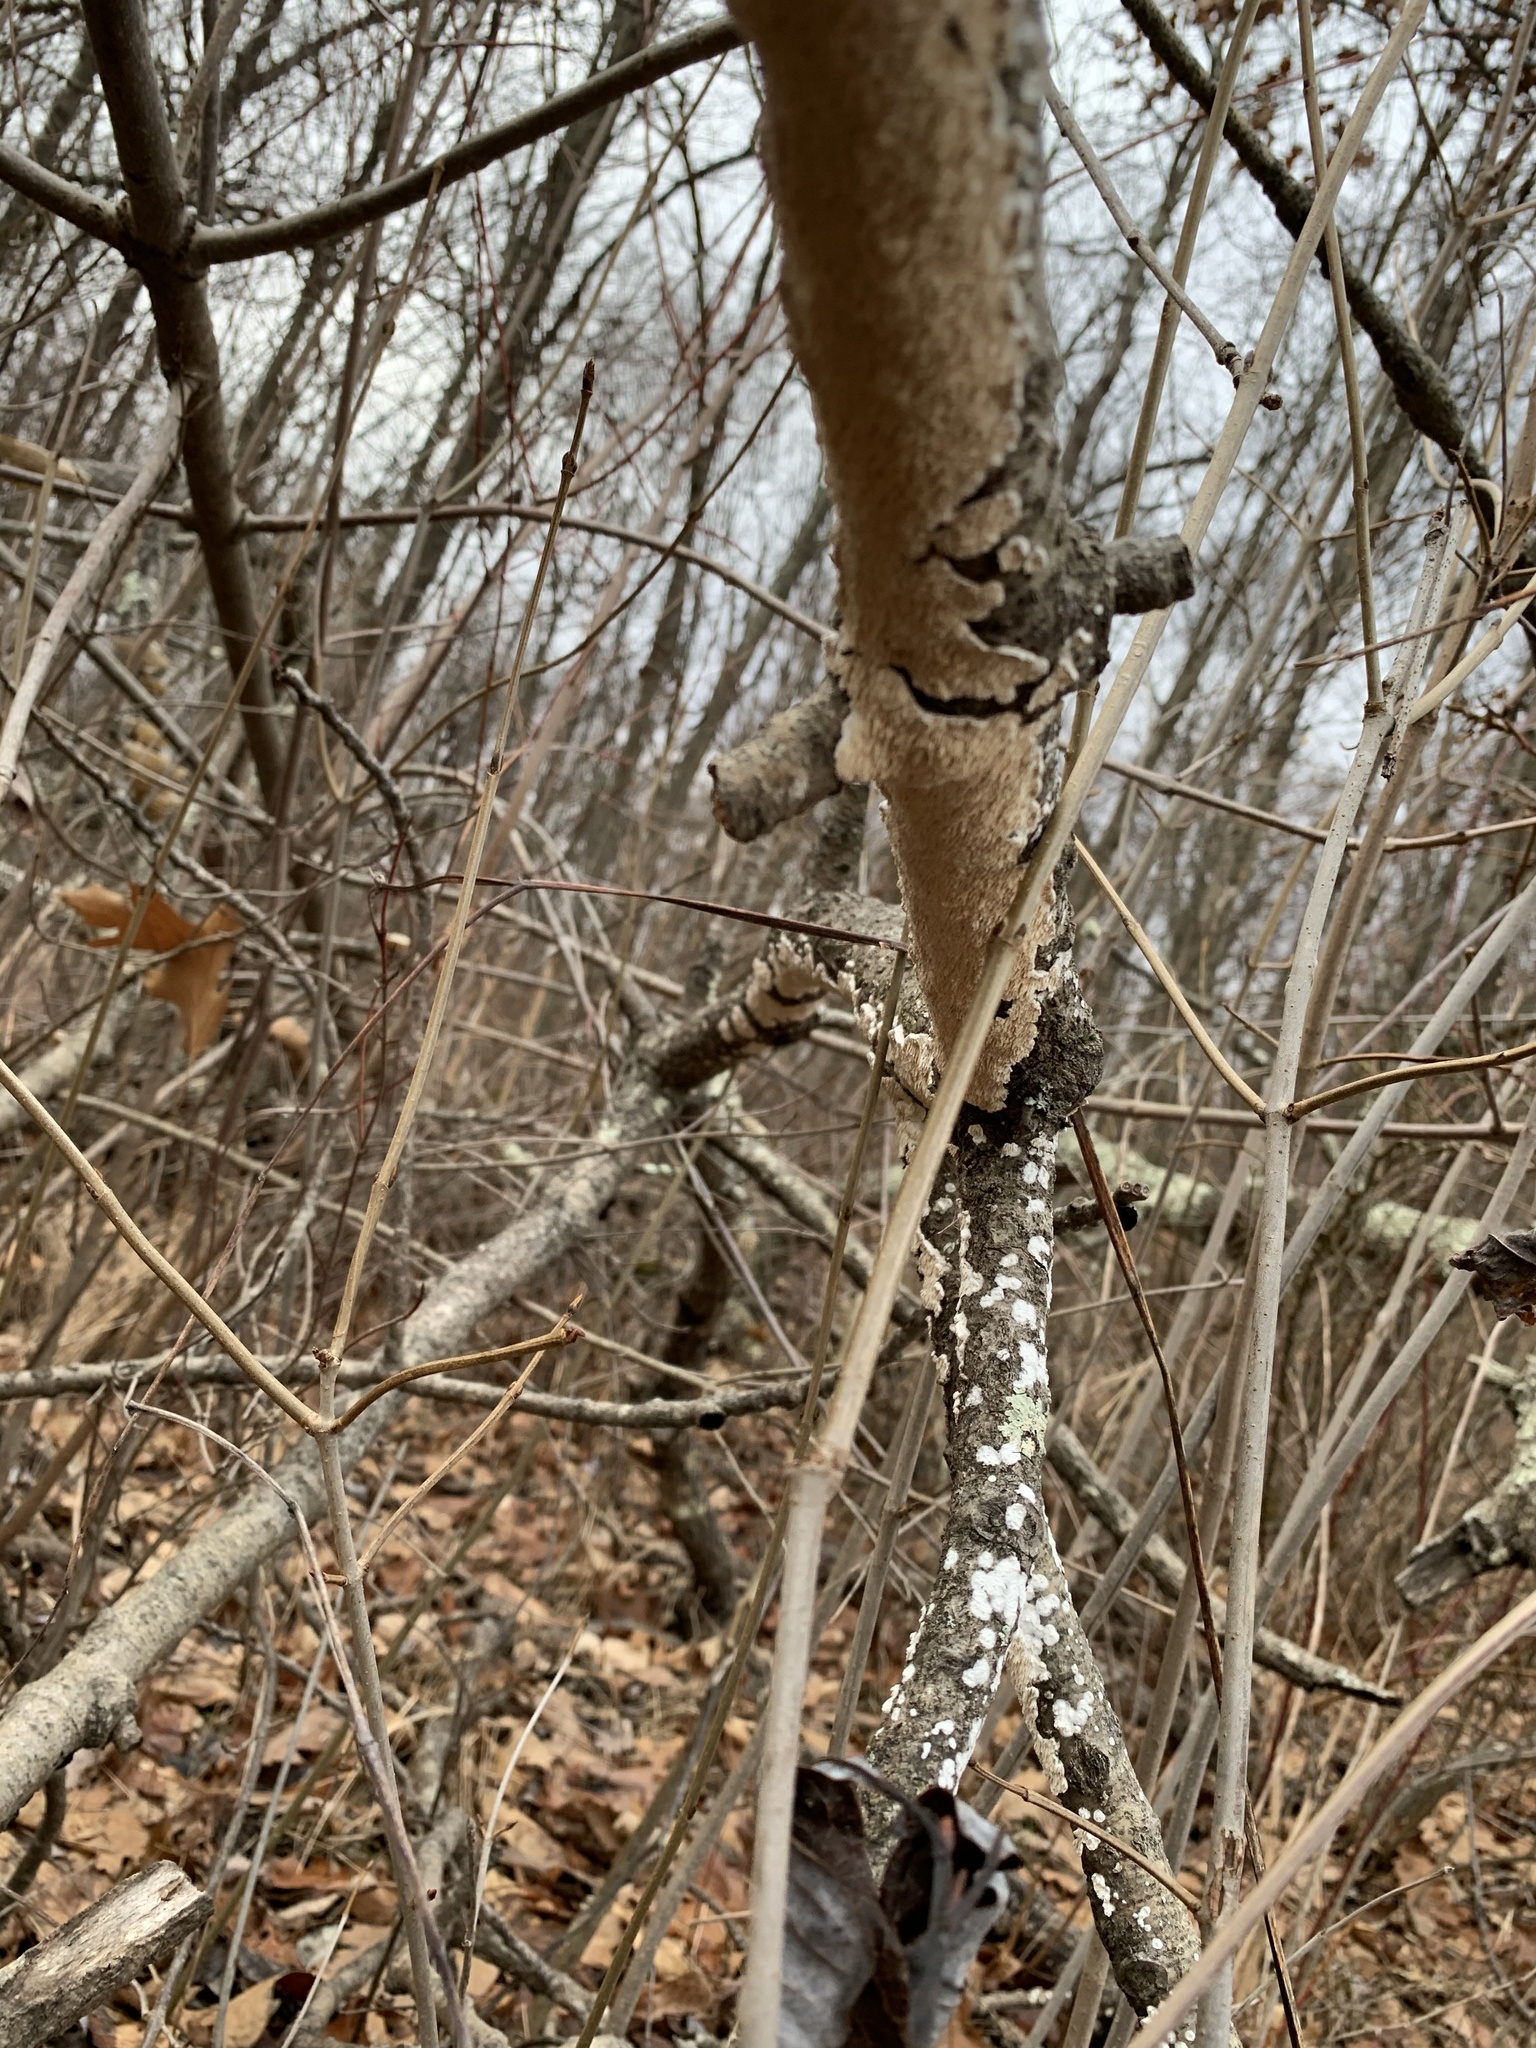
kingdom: Fungi
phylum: Basidiomycota
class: Agaricomycetes
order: Polyporales
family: Irpicaceae
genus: Irpex
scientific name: Irpex lacteus
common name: Milk-white toothed polypore
